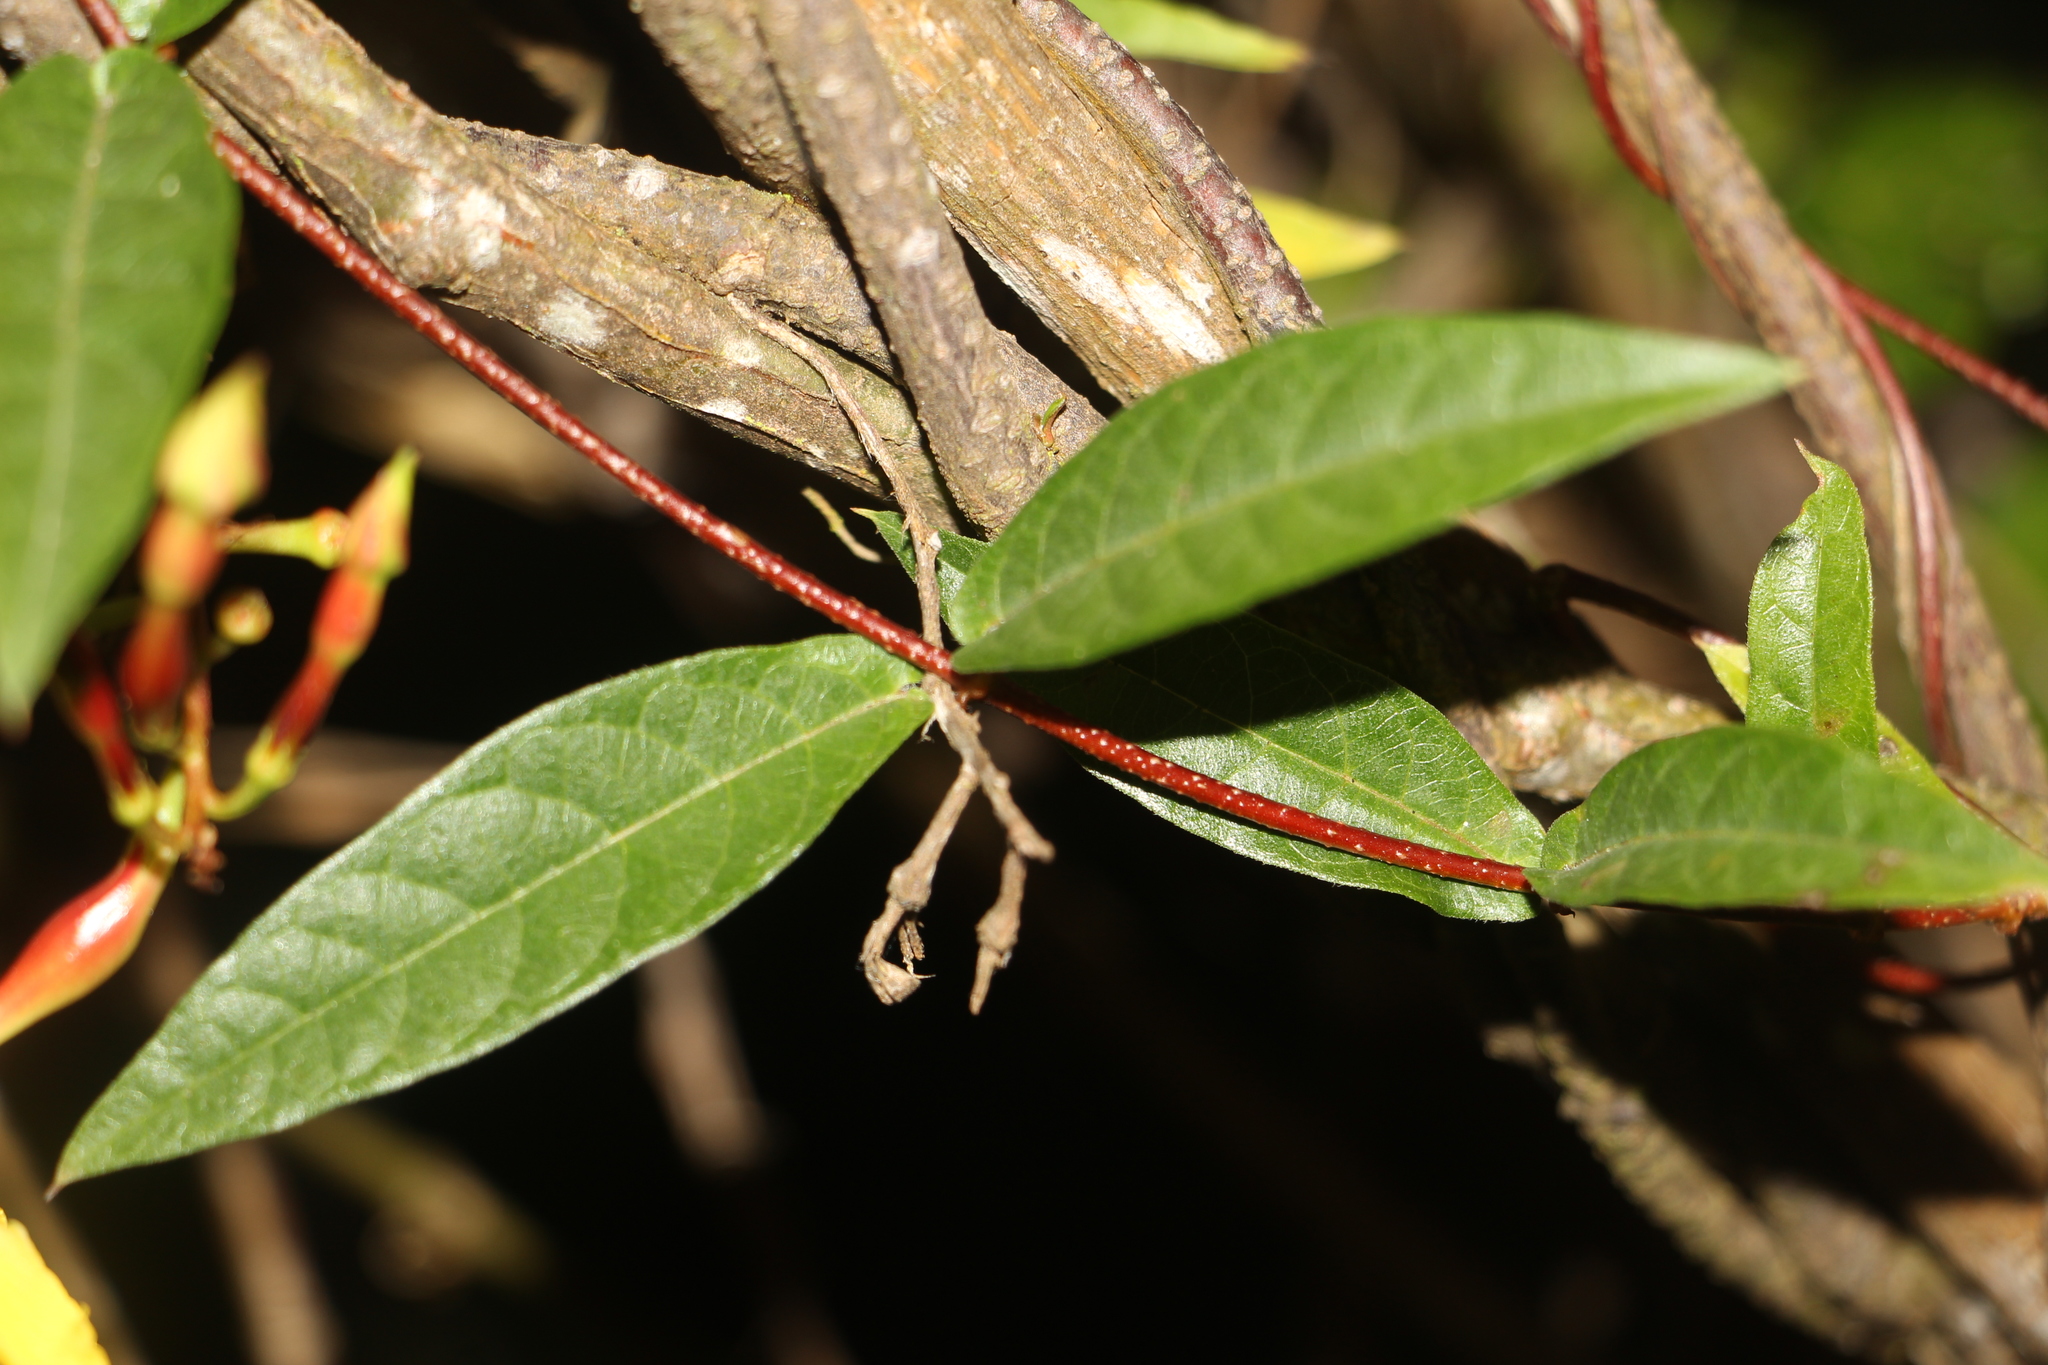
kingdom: Plantae
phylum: Tracheophyta
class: Magnoliopsida
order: Gentianales
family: Apocynaceae
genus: Mandevilla
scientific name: Mandevilla subsagittata
